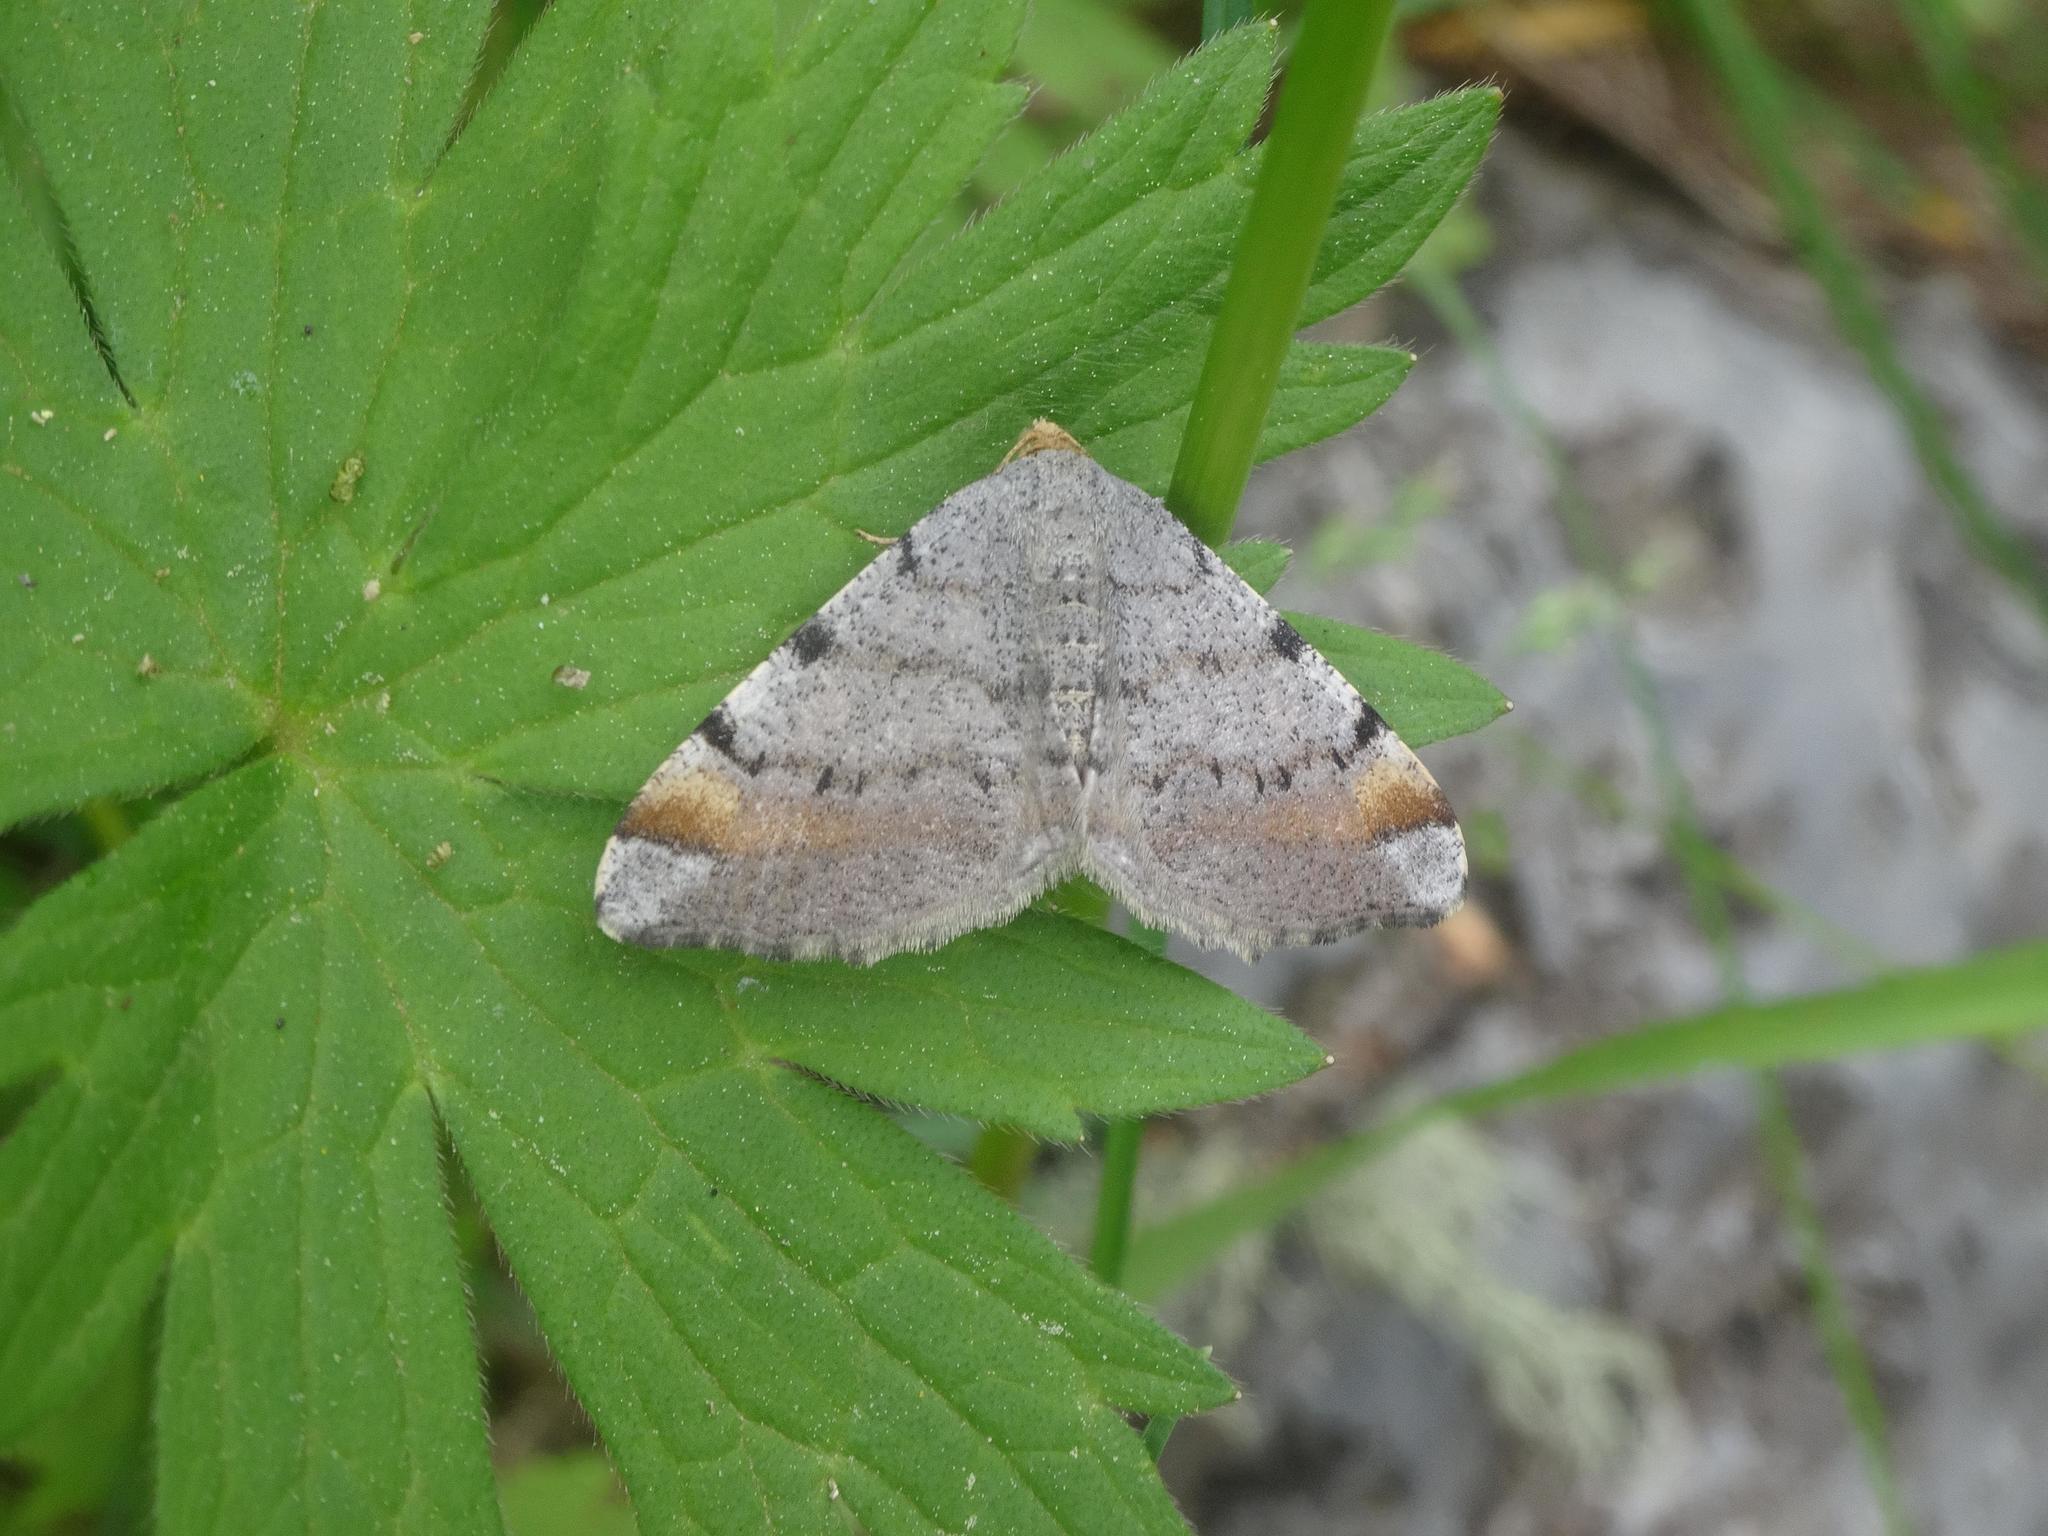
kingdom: Animalia
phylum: Arthropoda
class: Insecta
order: Lepidoptera
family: Geometridae
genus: Macaria
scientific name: Macaria liturata
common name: Tawny-barred angle
